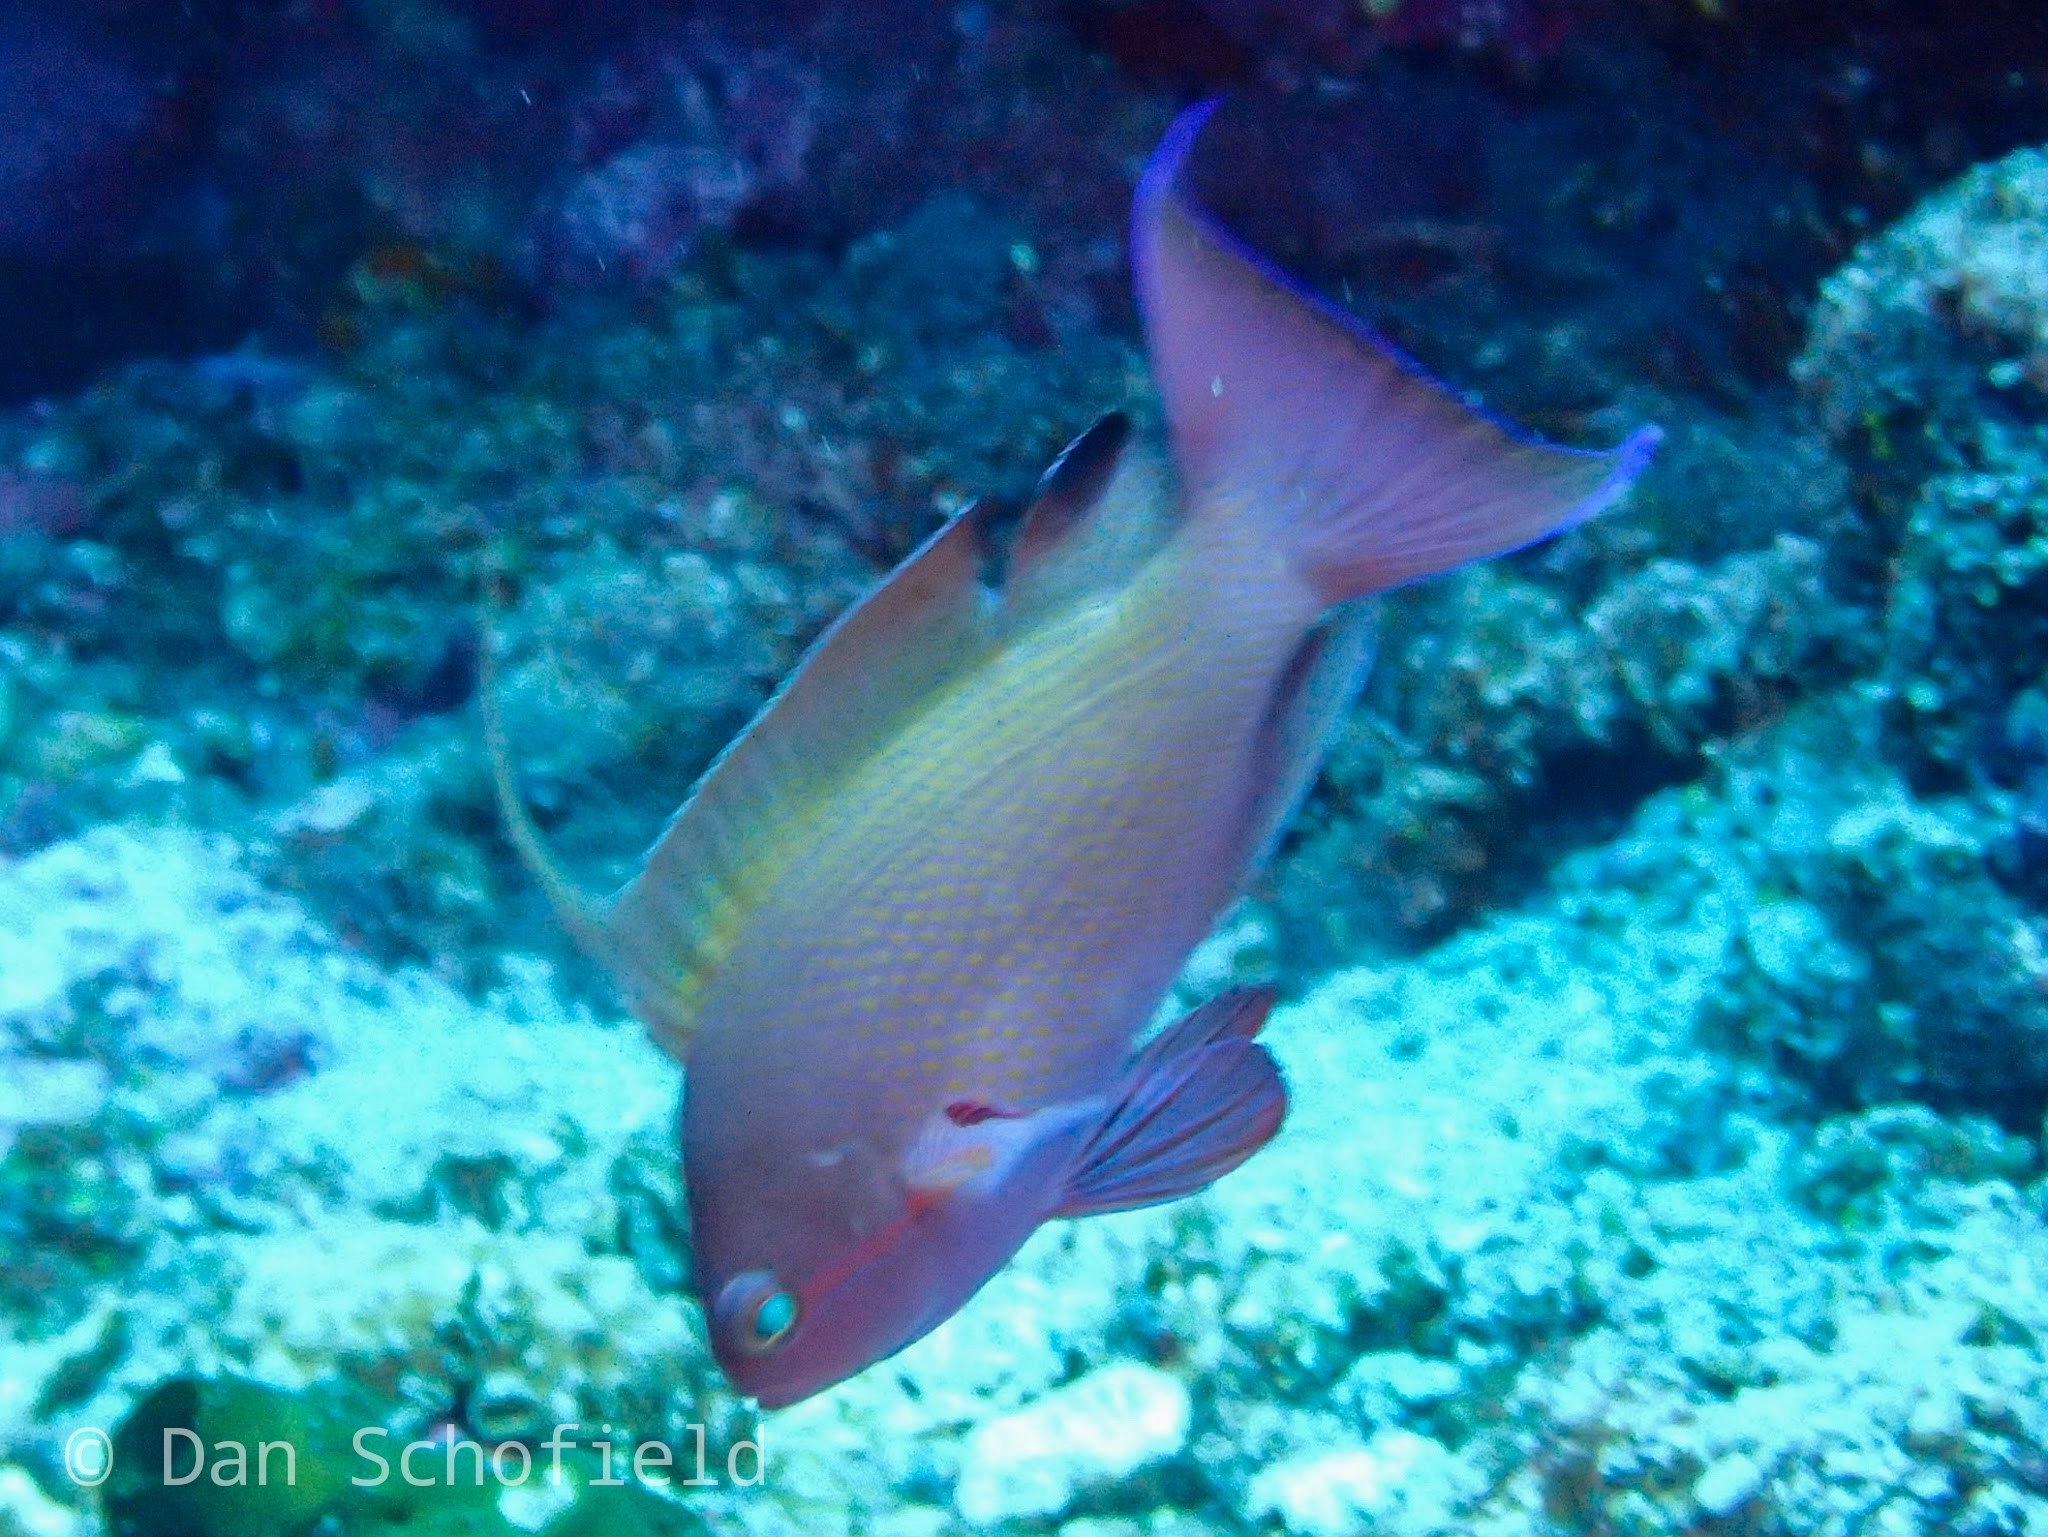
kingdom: Animalia
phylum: Chordata
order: Perciformes
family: Serranidae
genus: Pseudanthias
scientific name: Pseudanthias squamipinnis
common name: Scalefin anthias
